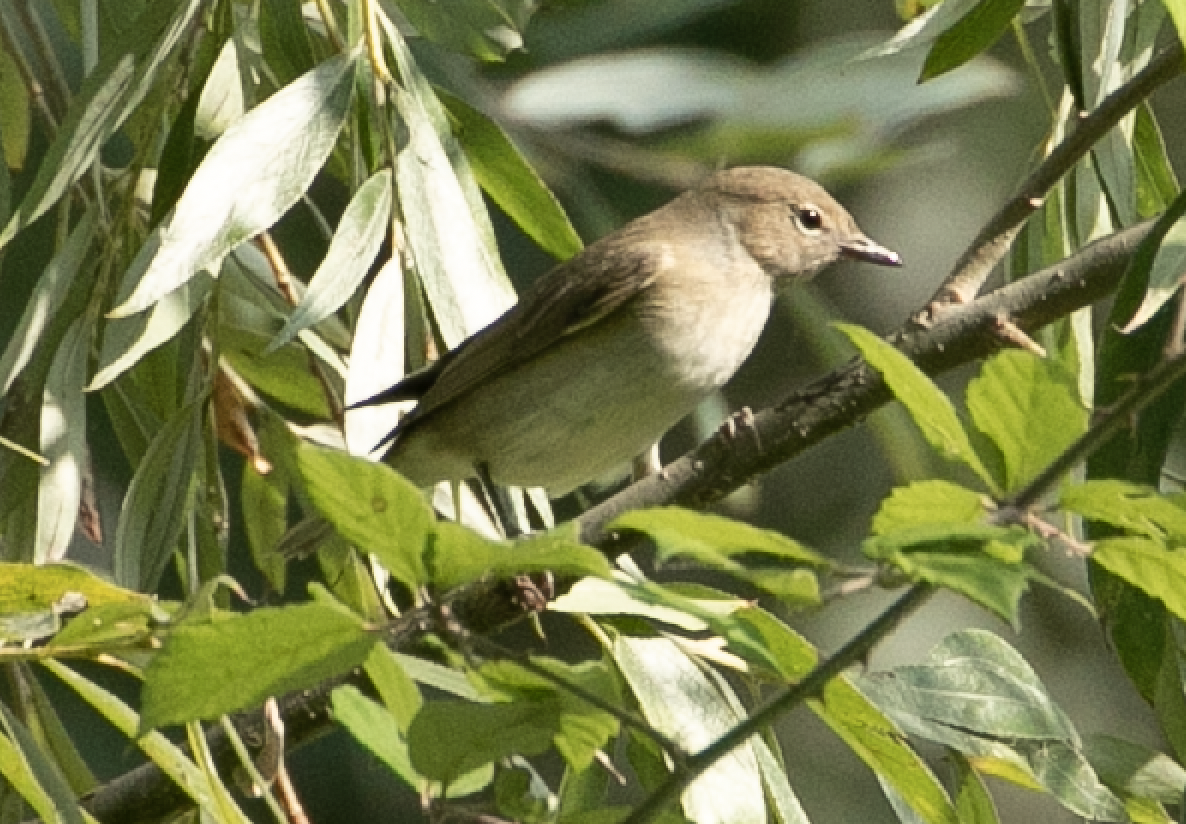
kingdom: Animalia
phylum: Chordata
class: Aves
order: Passeriformes
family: Sylviidae
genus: Sylvia
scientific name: Sylvia borin
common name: Garden warbler
